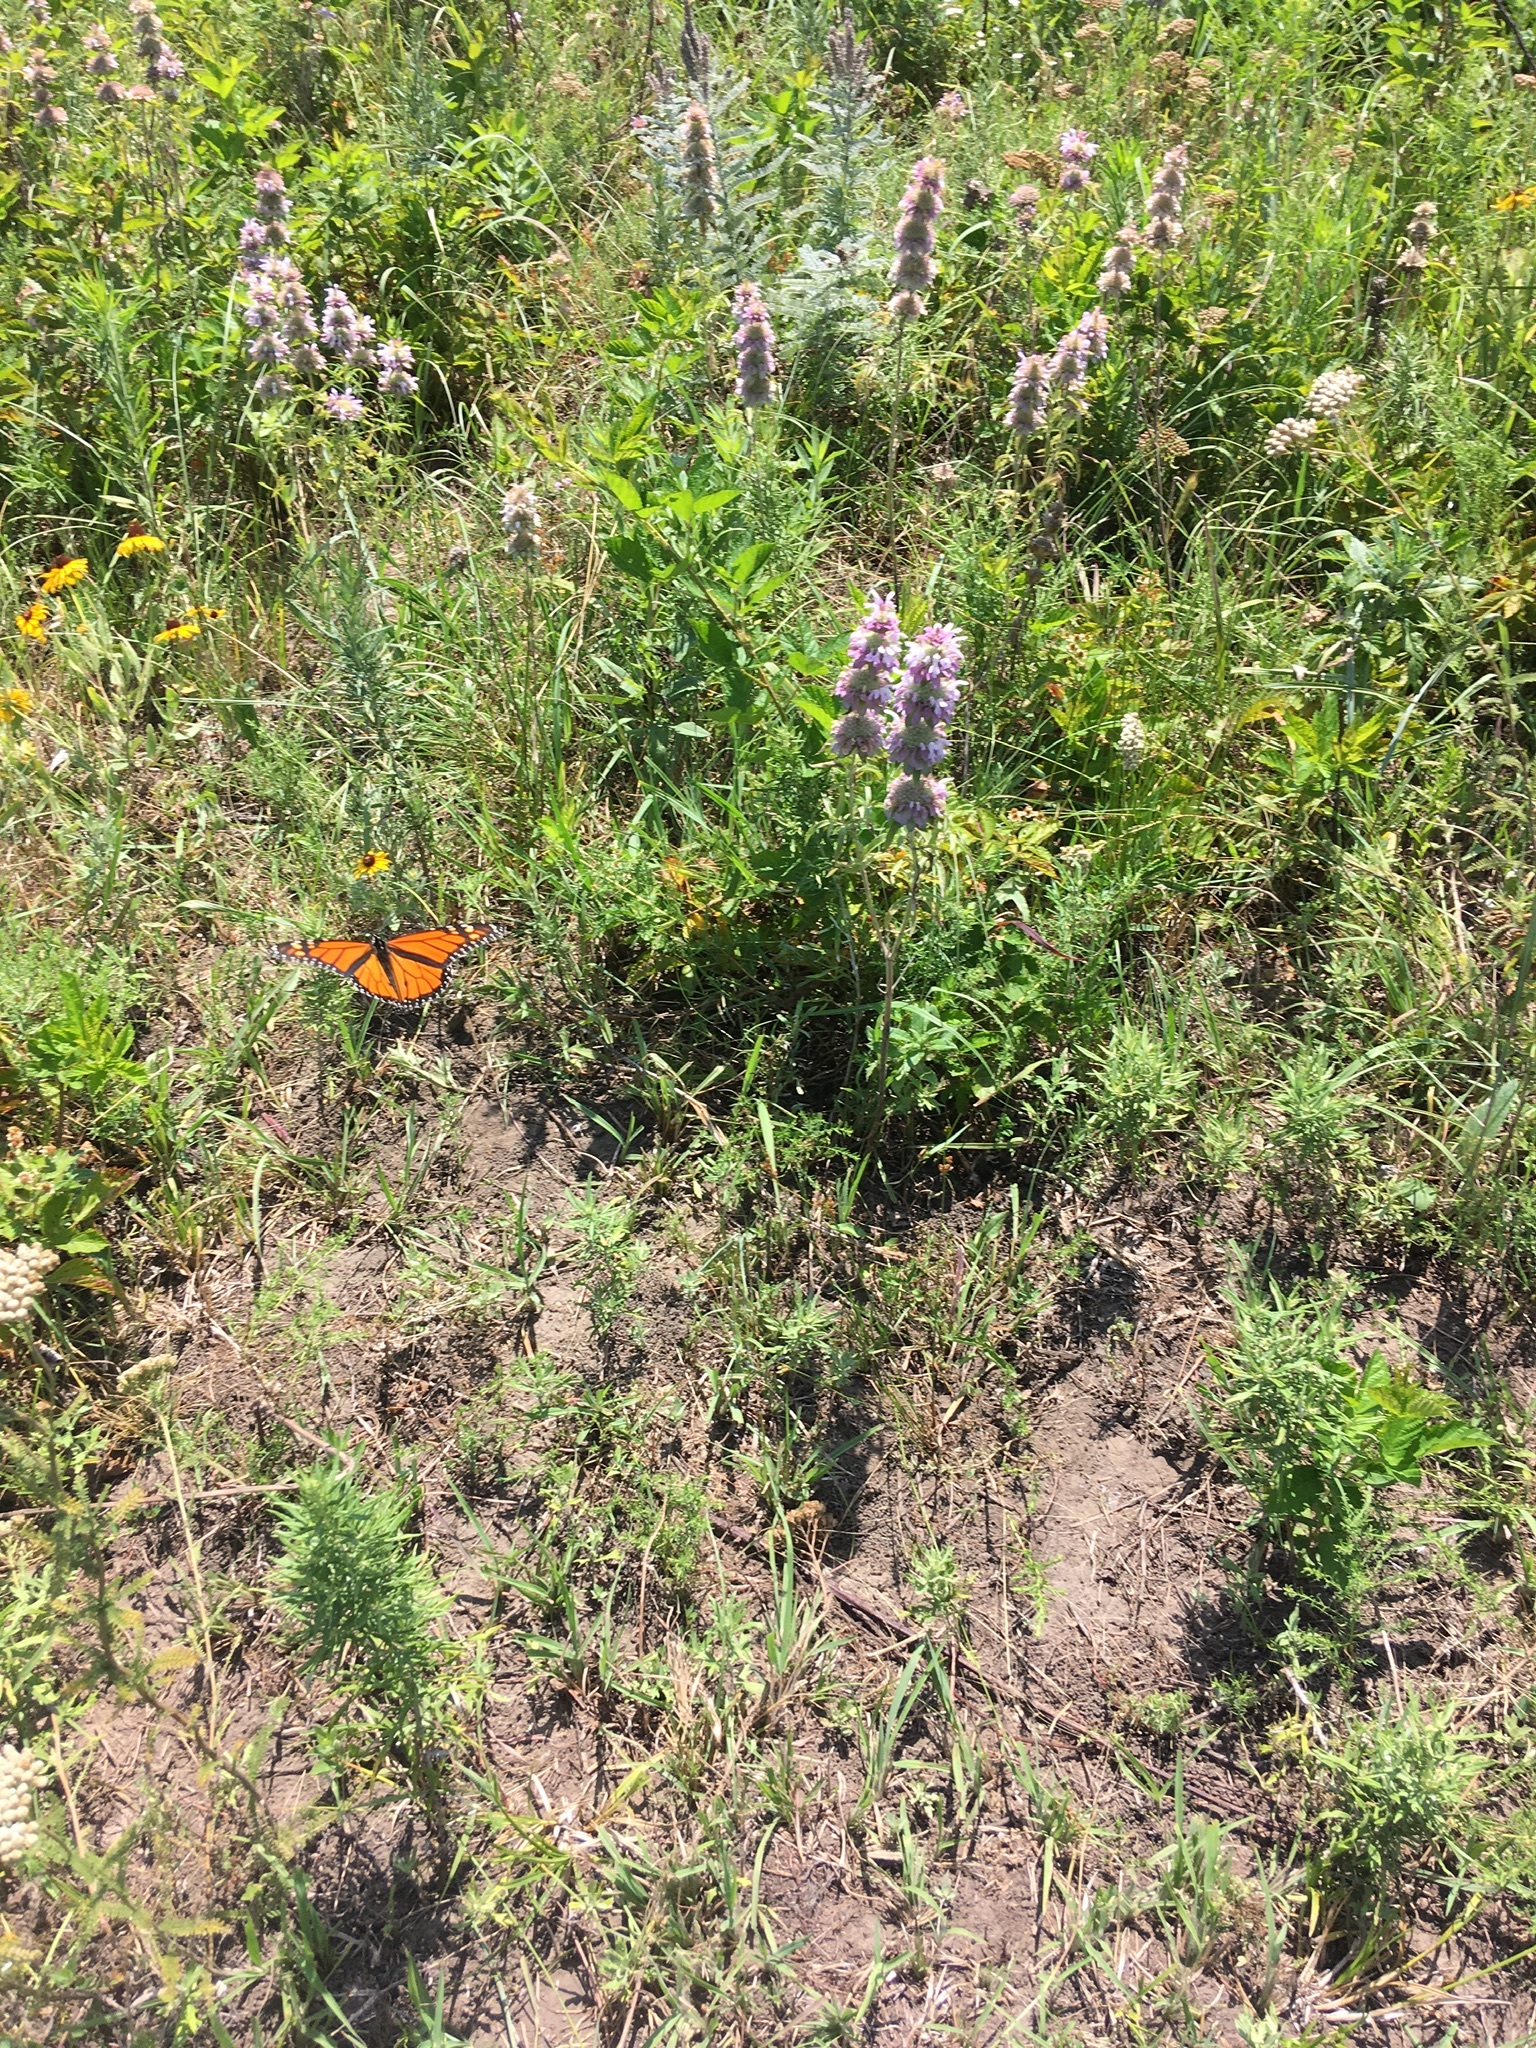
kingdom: Animalia
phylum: Arthropoda
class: Insecta
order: Lepidoptera
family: Nymphalidae
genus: Danaus
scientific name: Danaus plexippus
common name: Monarch
